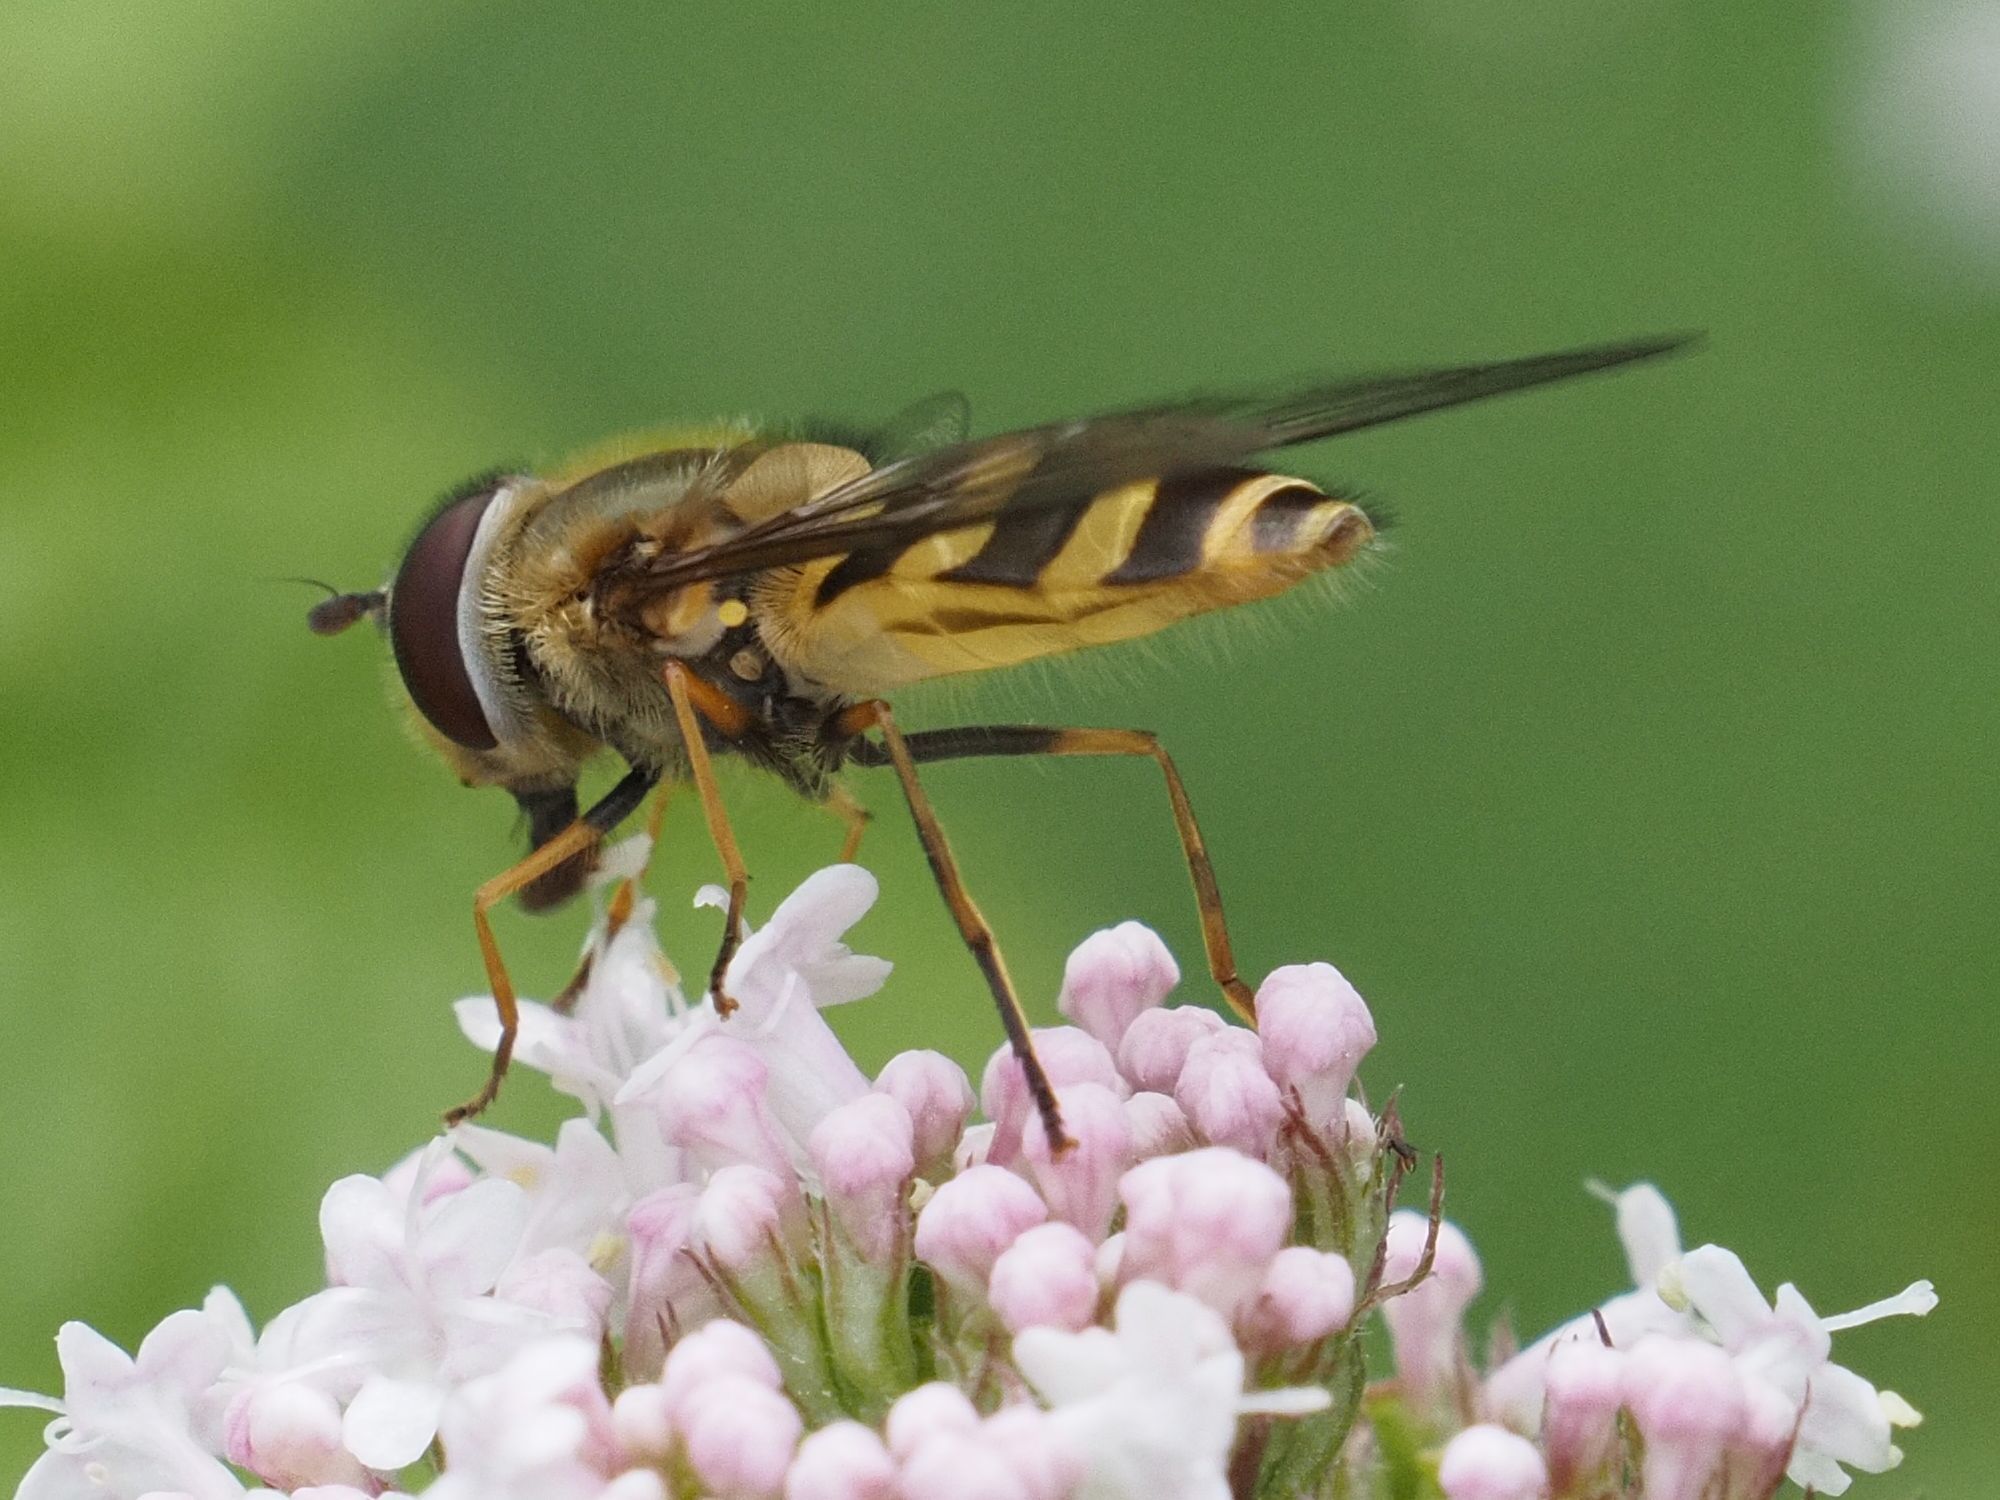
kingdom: Animalia
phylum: Arthropoda
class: Insecta
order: Diptera
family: Syrphidae
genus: Syrphus
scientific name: Syrphus torvus
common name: Hairy-eyed flower fly
